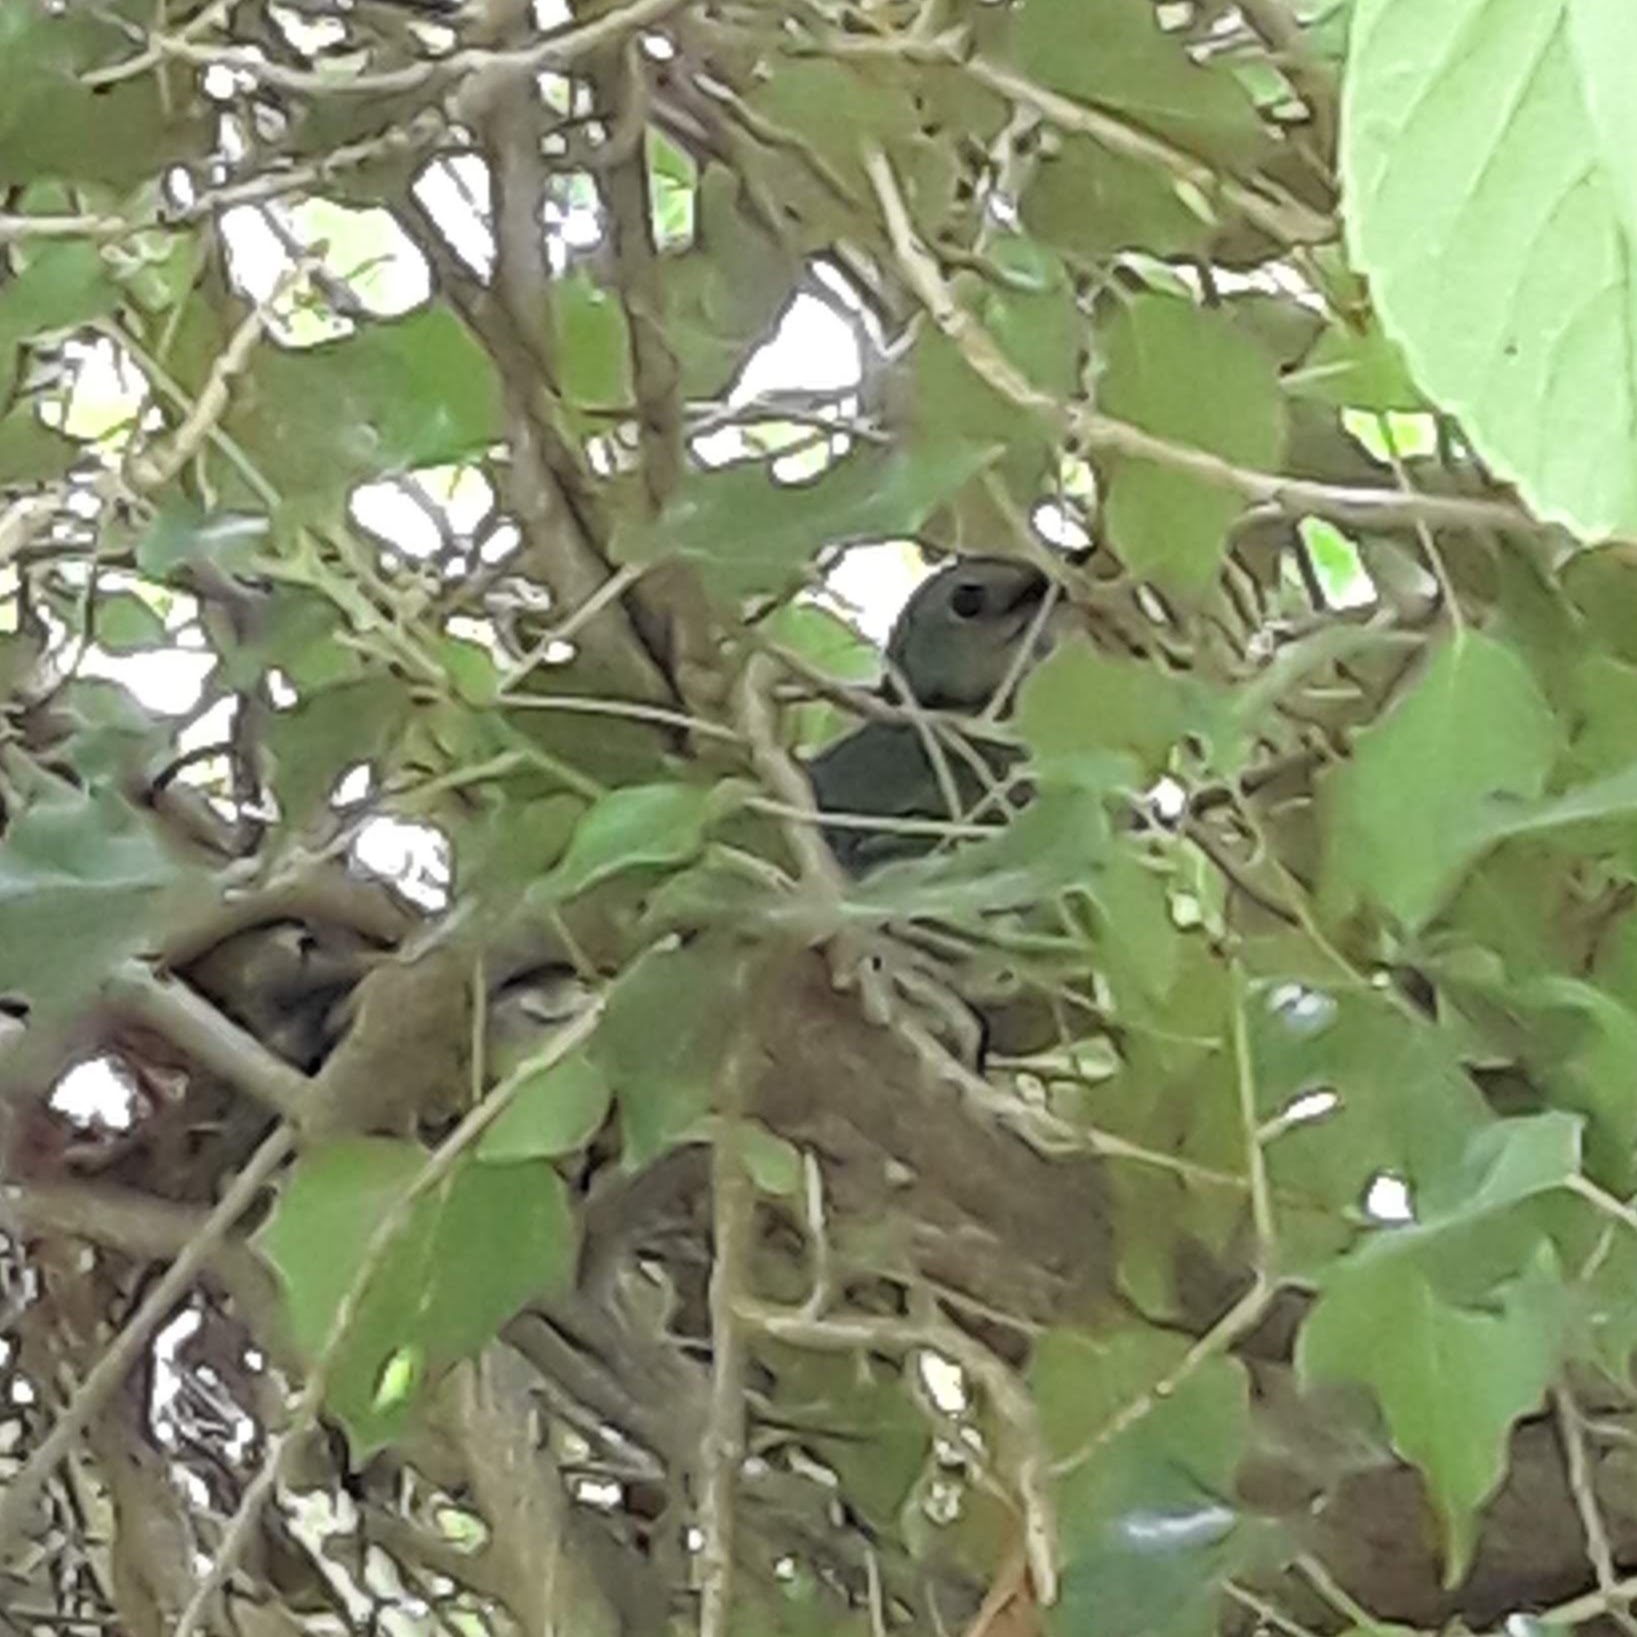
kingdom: Animalia
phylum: Chordata
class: Aves
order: Passeriformes
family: Mimidae
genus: Dumetella
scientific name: Dumetella carolinensis
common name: Gray catbird
